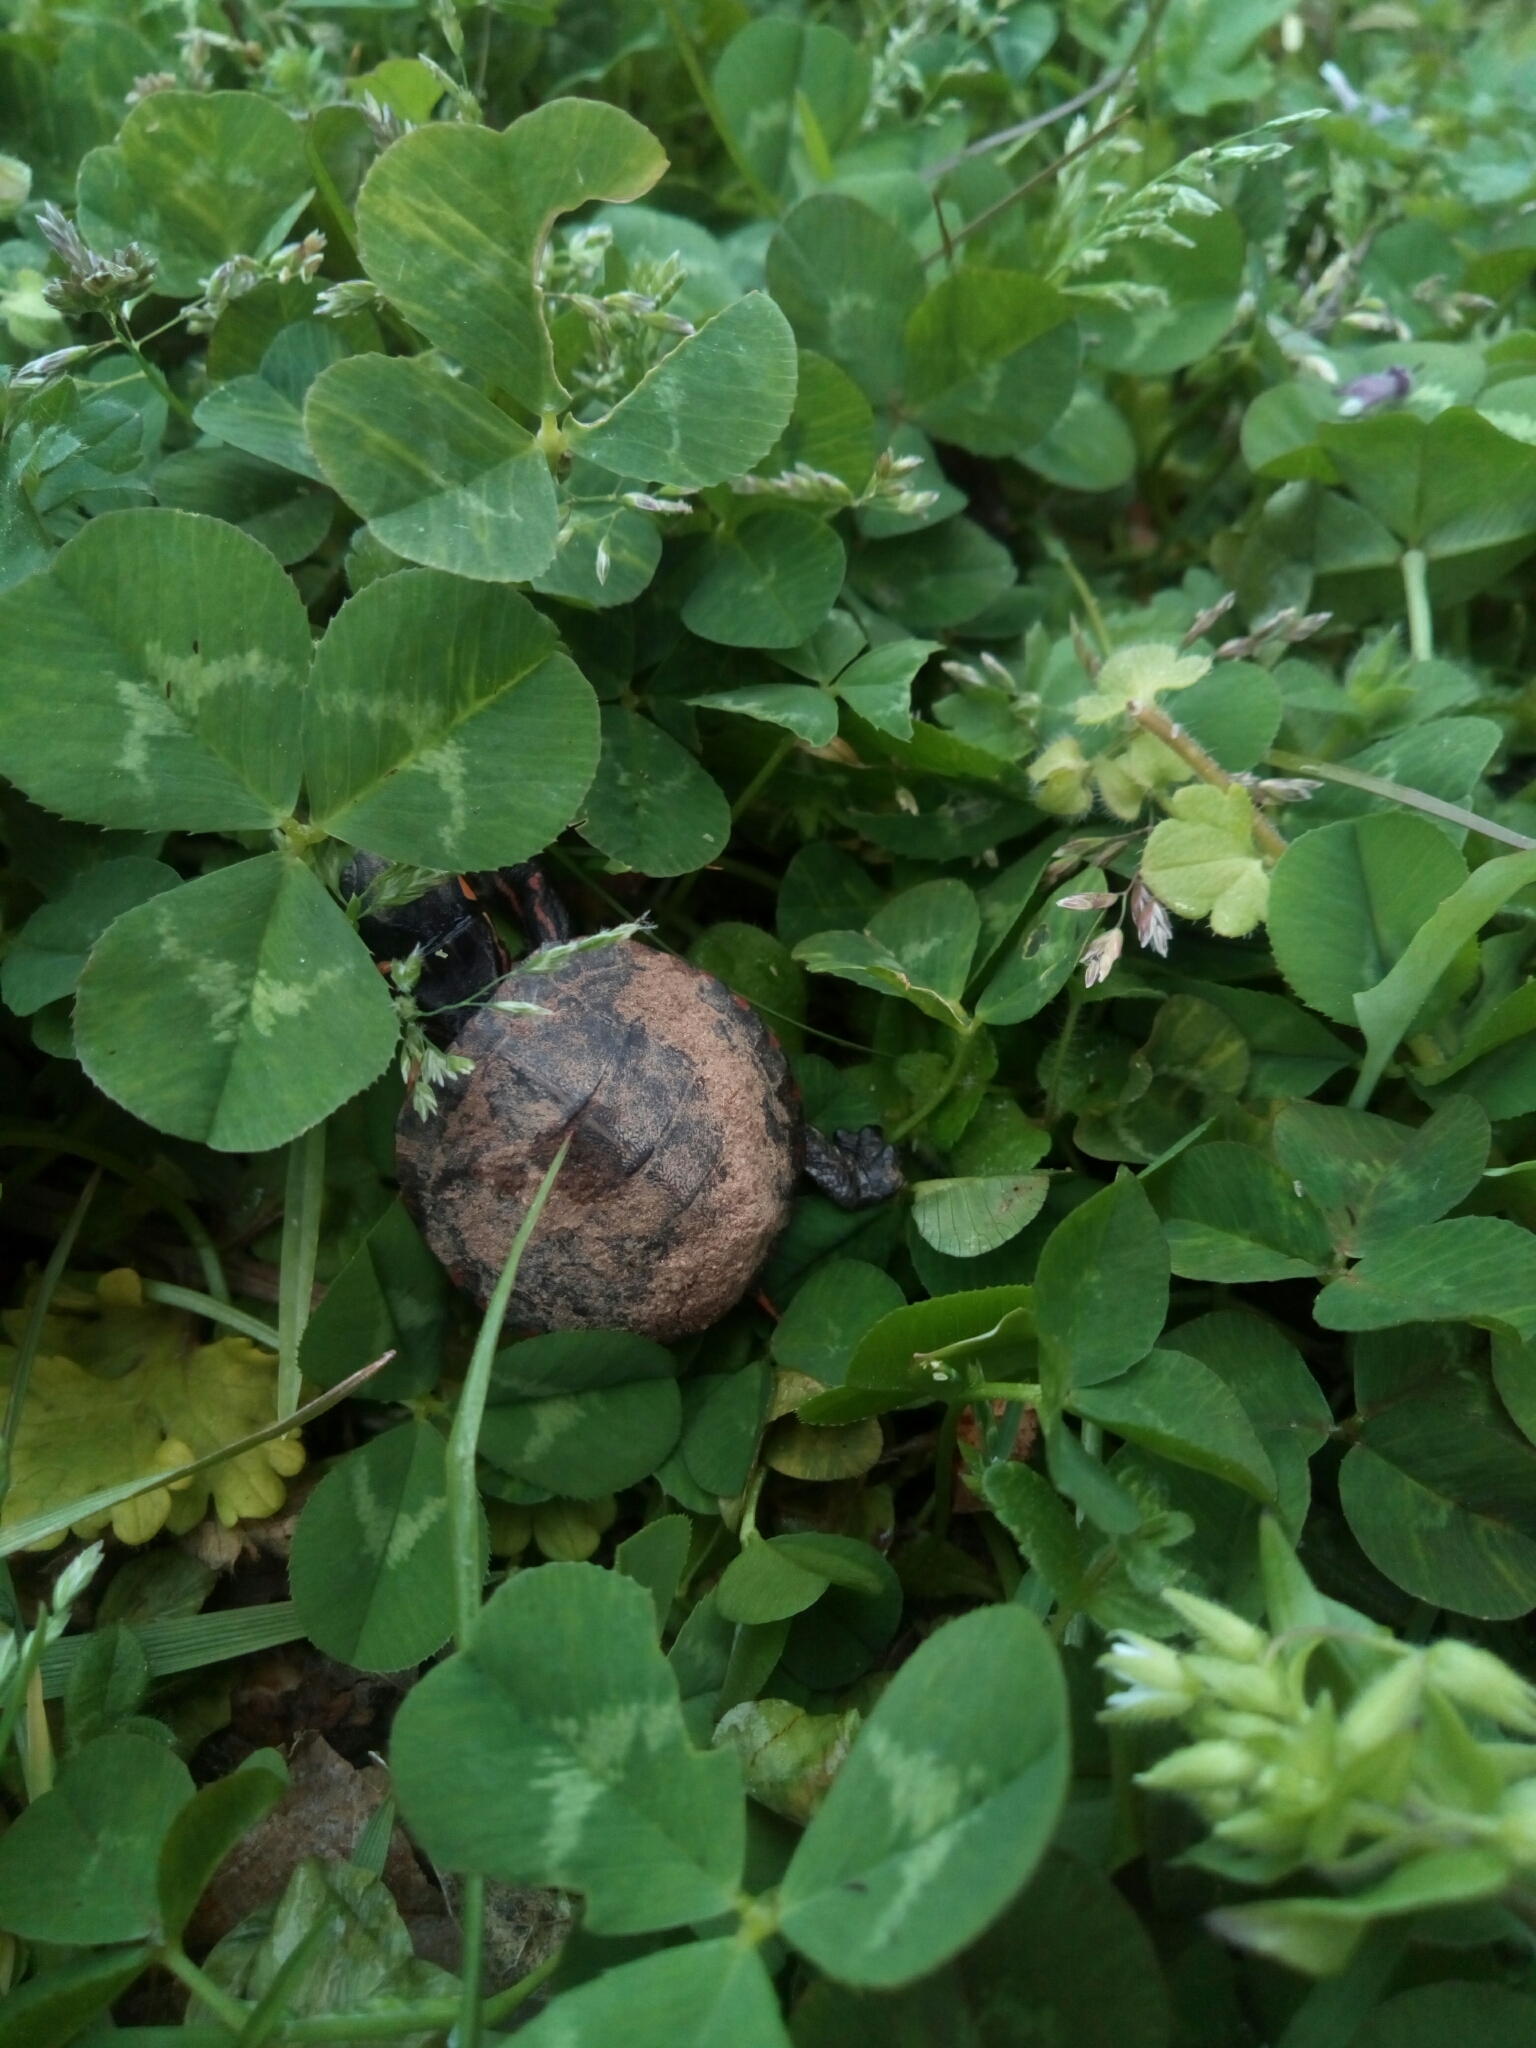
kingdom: Animalia
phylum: Chordata
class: Testudines
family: Emydidae
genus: Chrysemys
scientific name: Chrysemys picta
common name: Painted turtle
